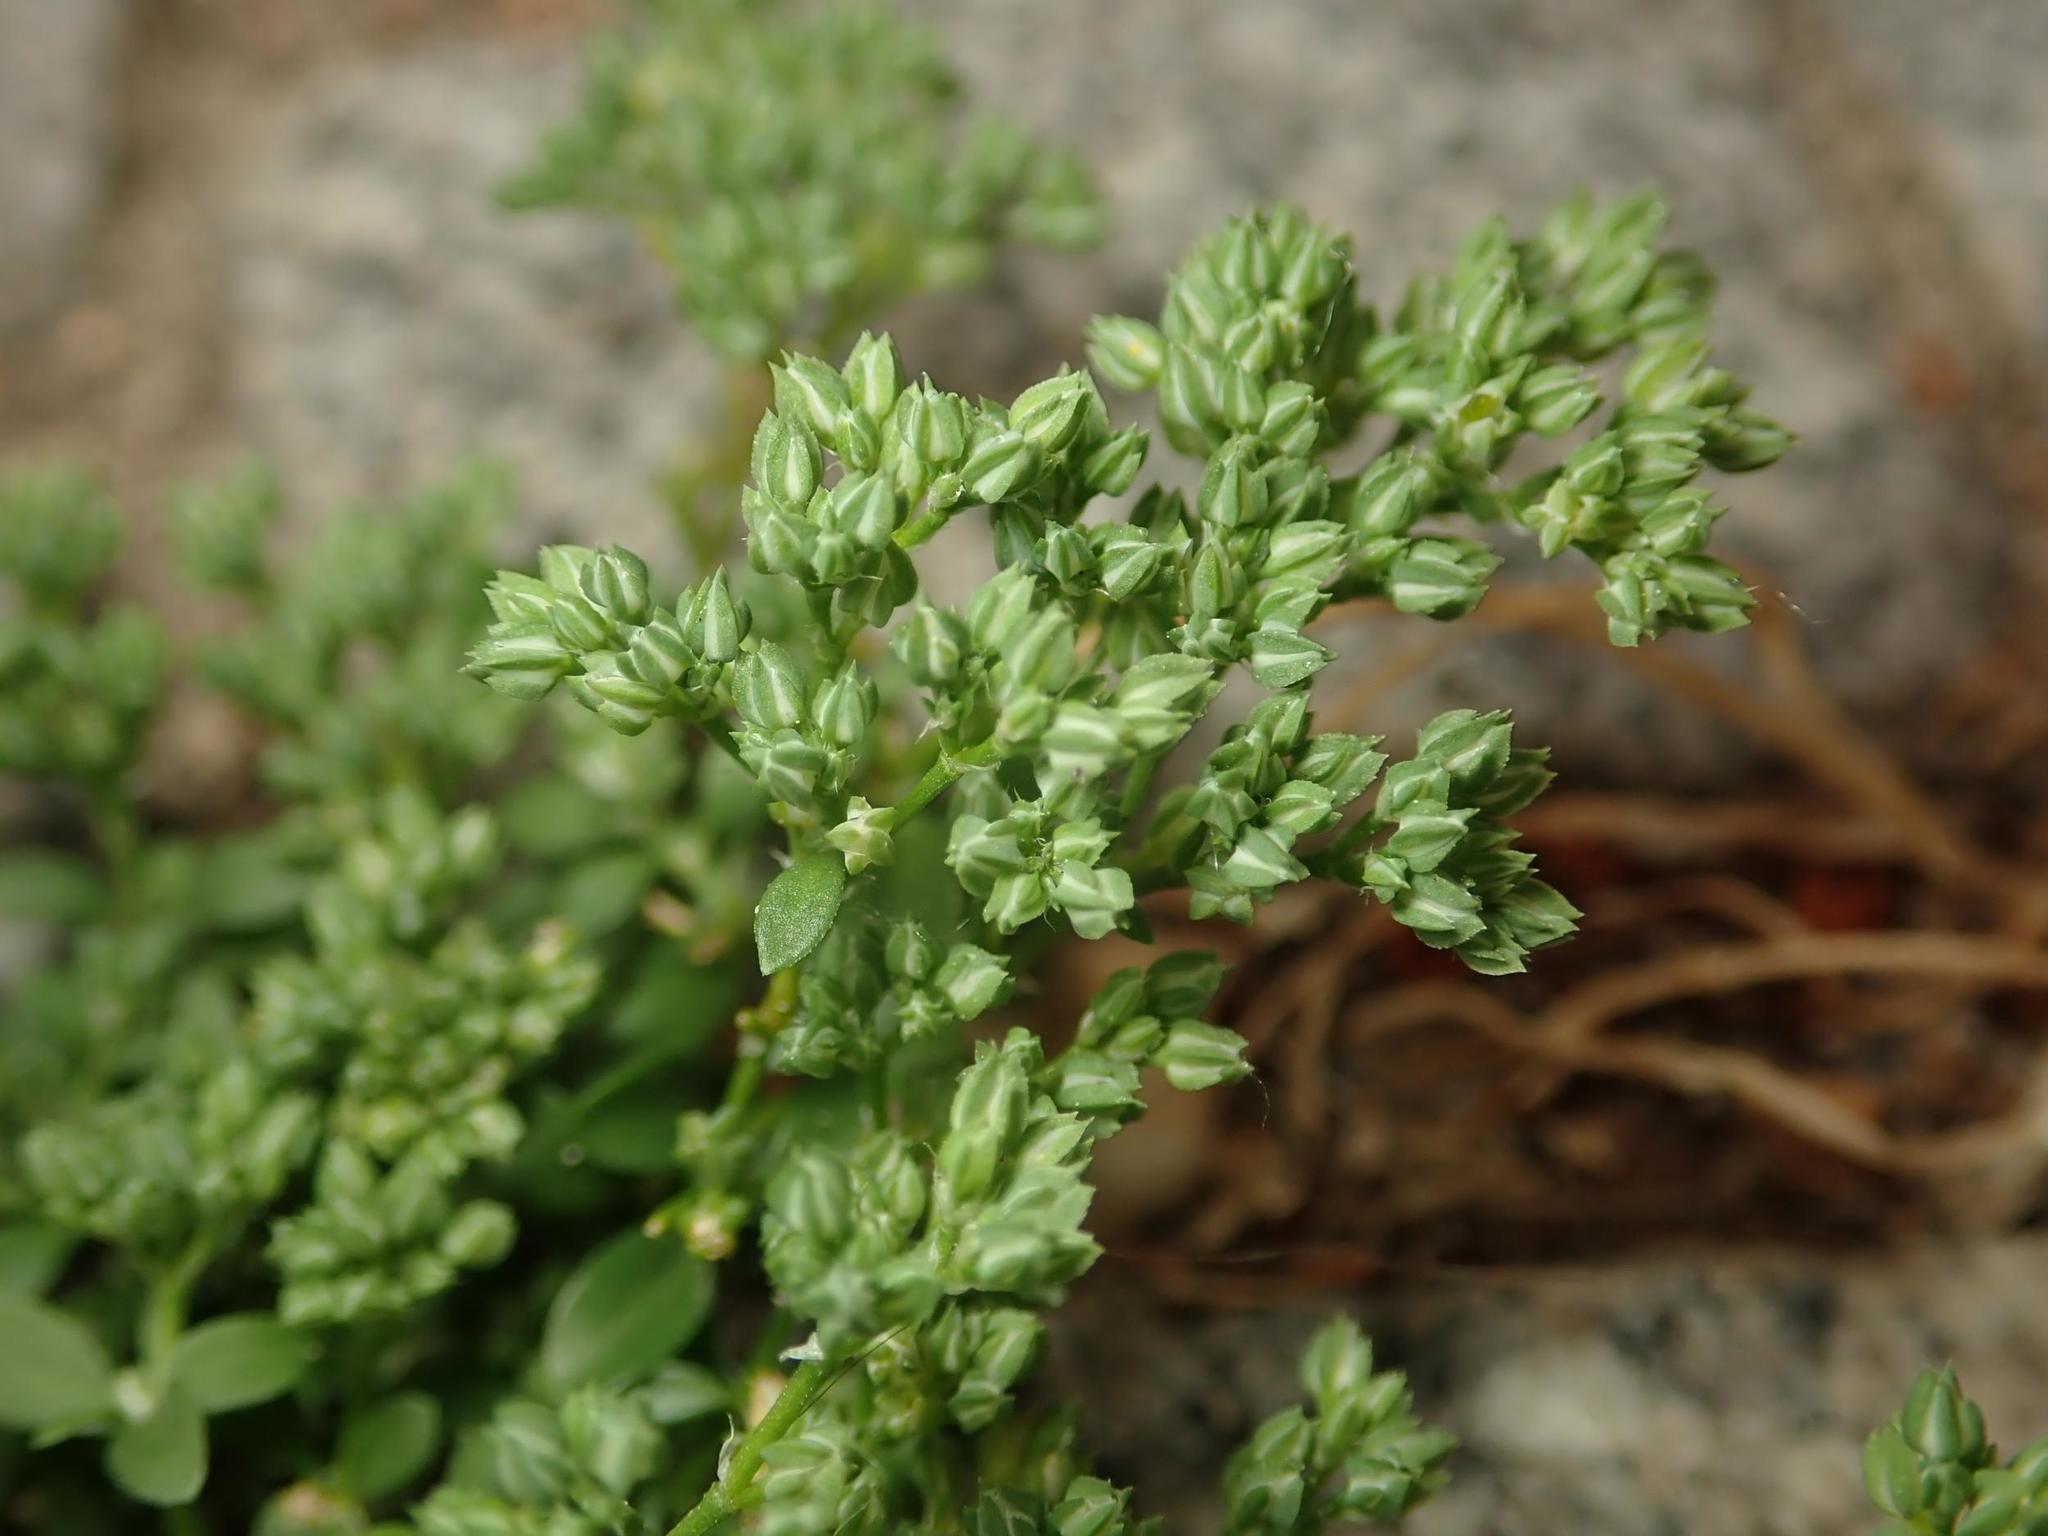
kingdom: Plantae
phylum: Tracheophyta
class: Magnoliopsida
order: Caryophyllales
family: Caryophyllaceae
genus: Polycarpon
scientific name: Polycarpon tetraphyllum
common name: Four-leaved all-seed
